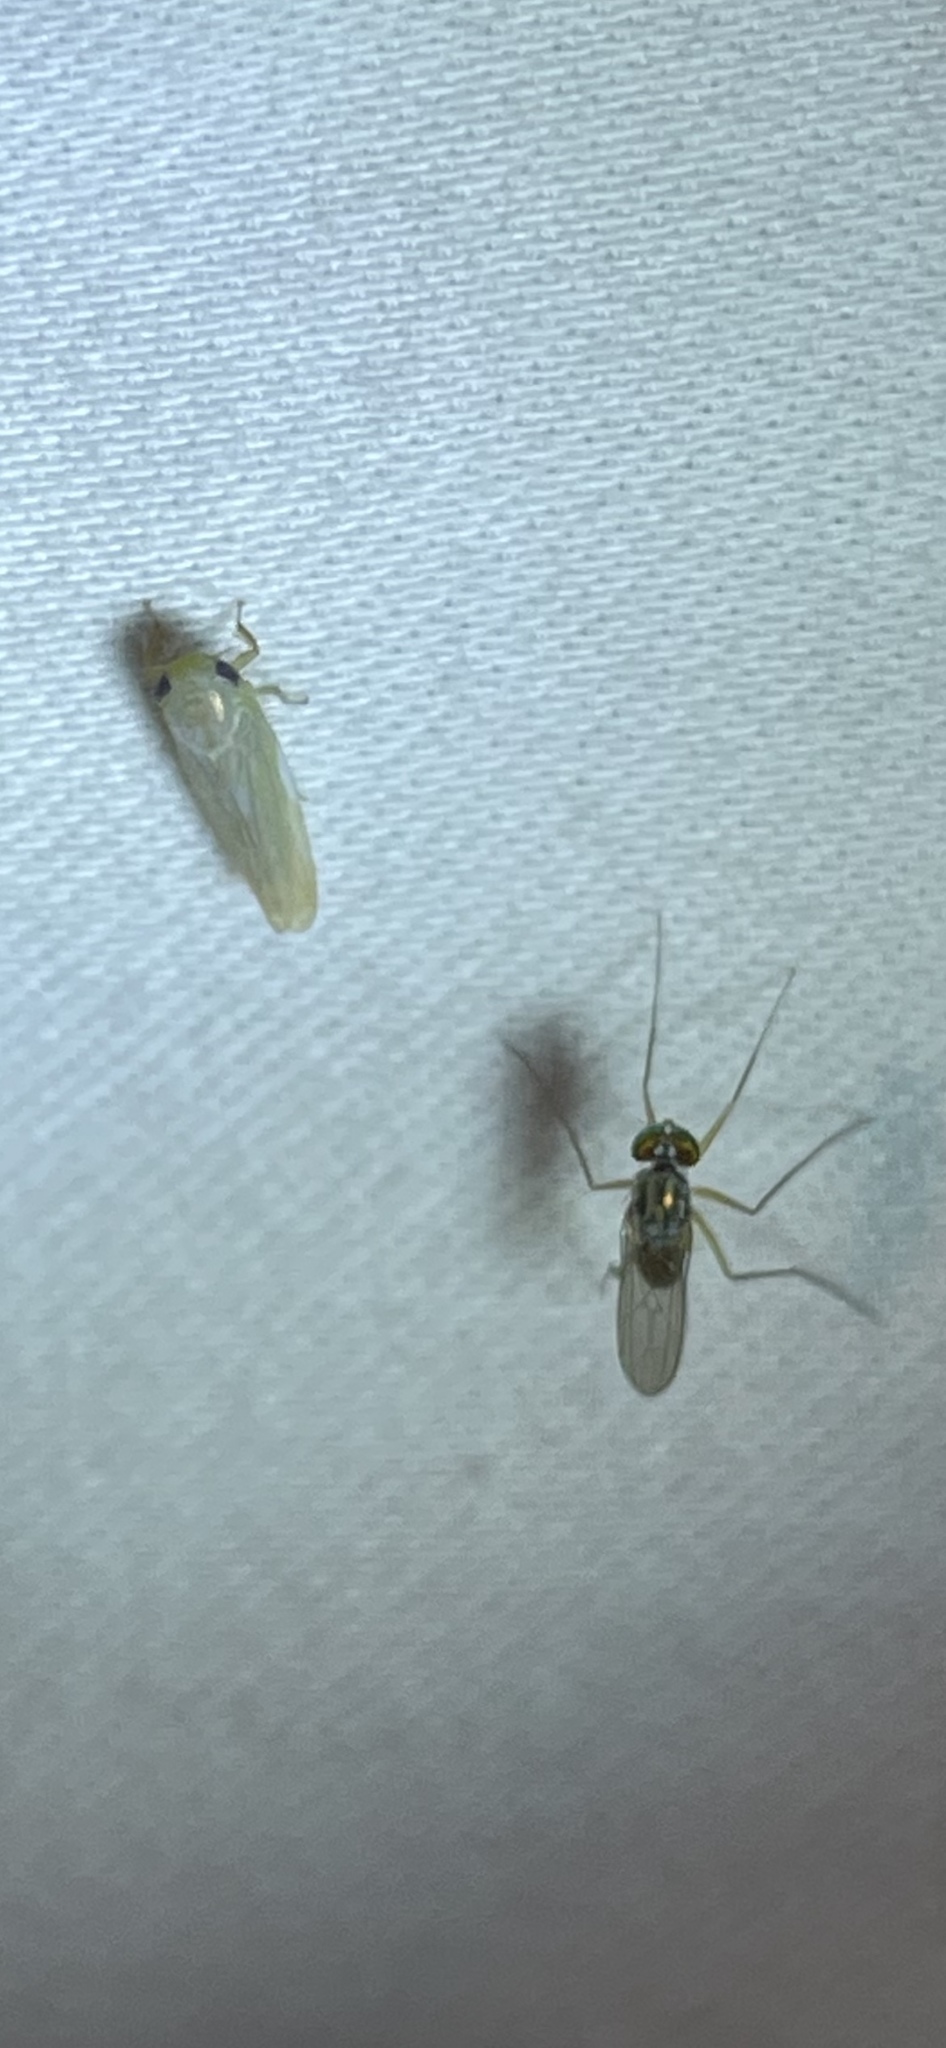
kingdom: Animalia
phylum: Arthropoda
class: Insecta
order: Diptera
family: Dolichopodidae
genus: Dactylomyia
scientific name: Dactylomyia lateralis
